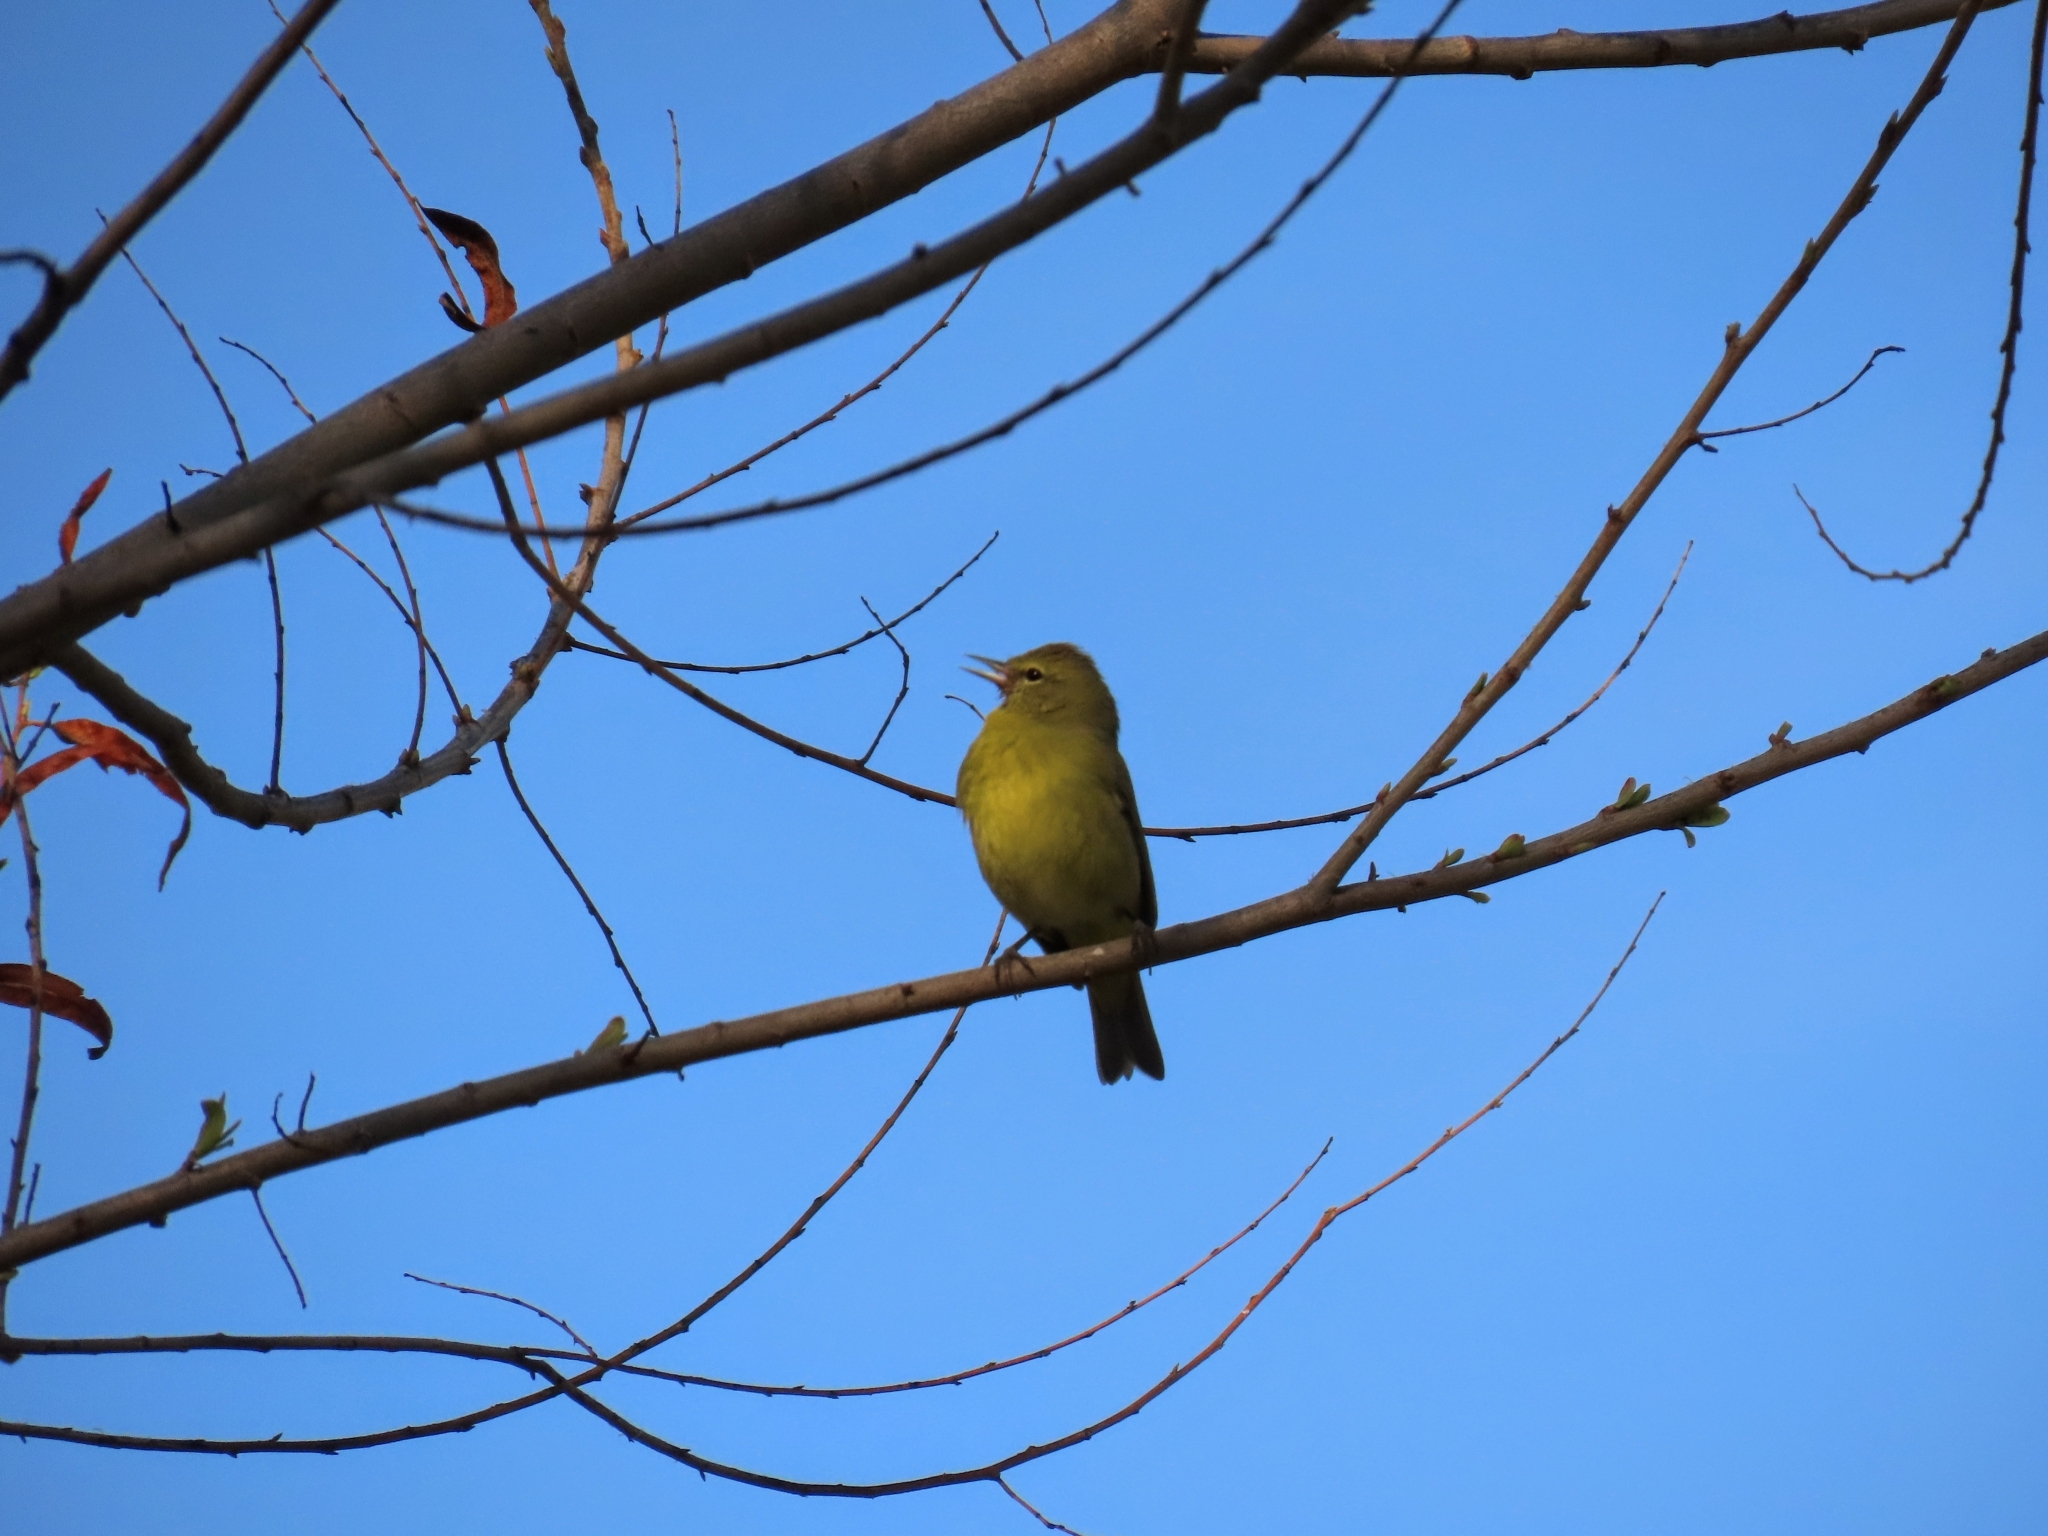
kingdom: Animalia
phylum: Chordata
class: Aves
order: Passeriformes
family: Parulidae
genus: Leiothlypis
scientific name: Leiothlypis celata
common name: Orange-crowned warbler
